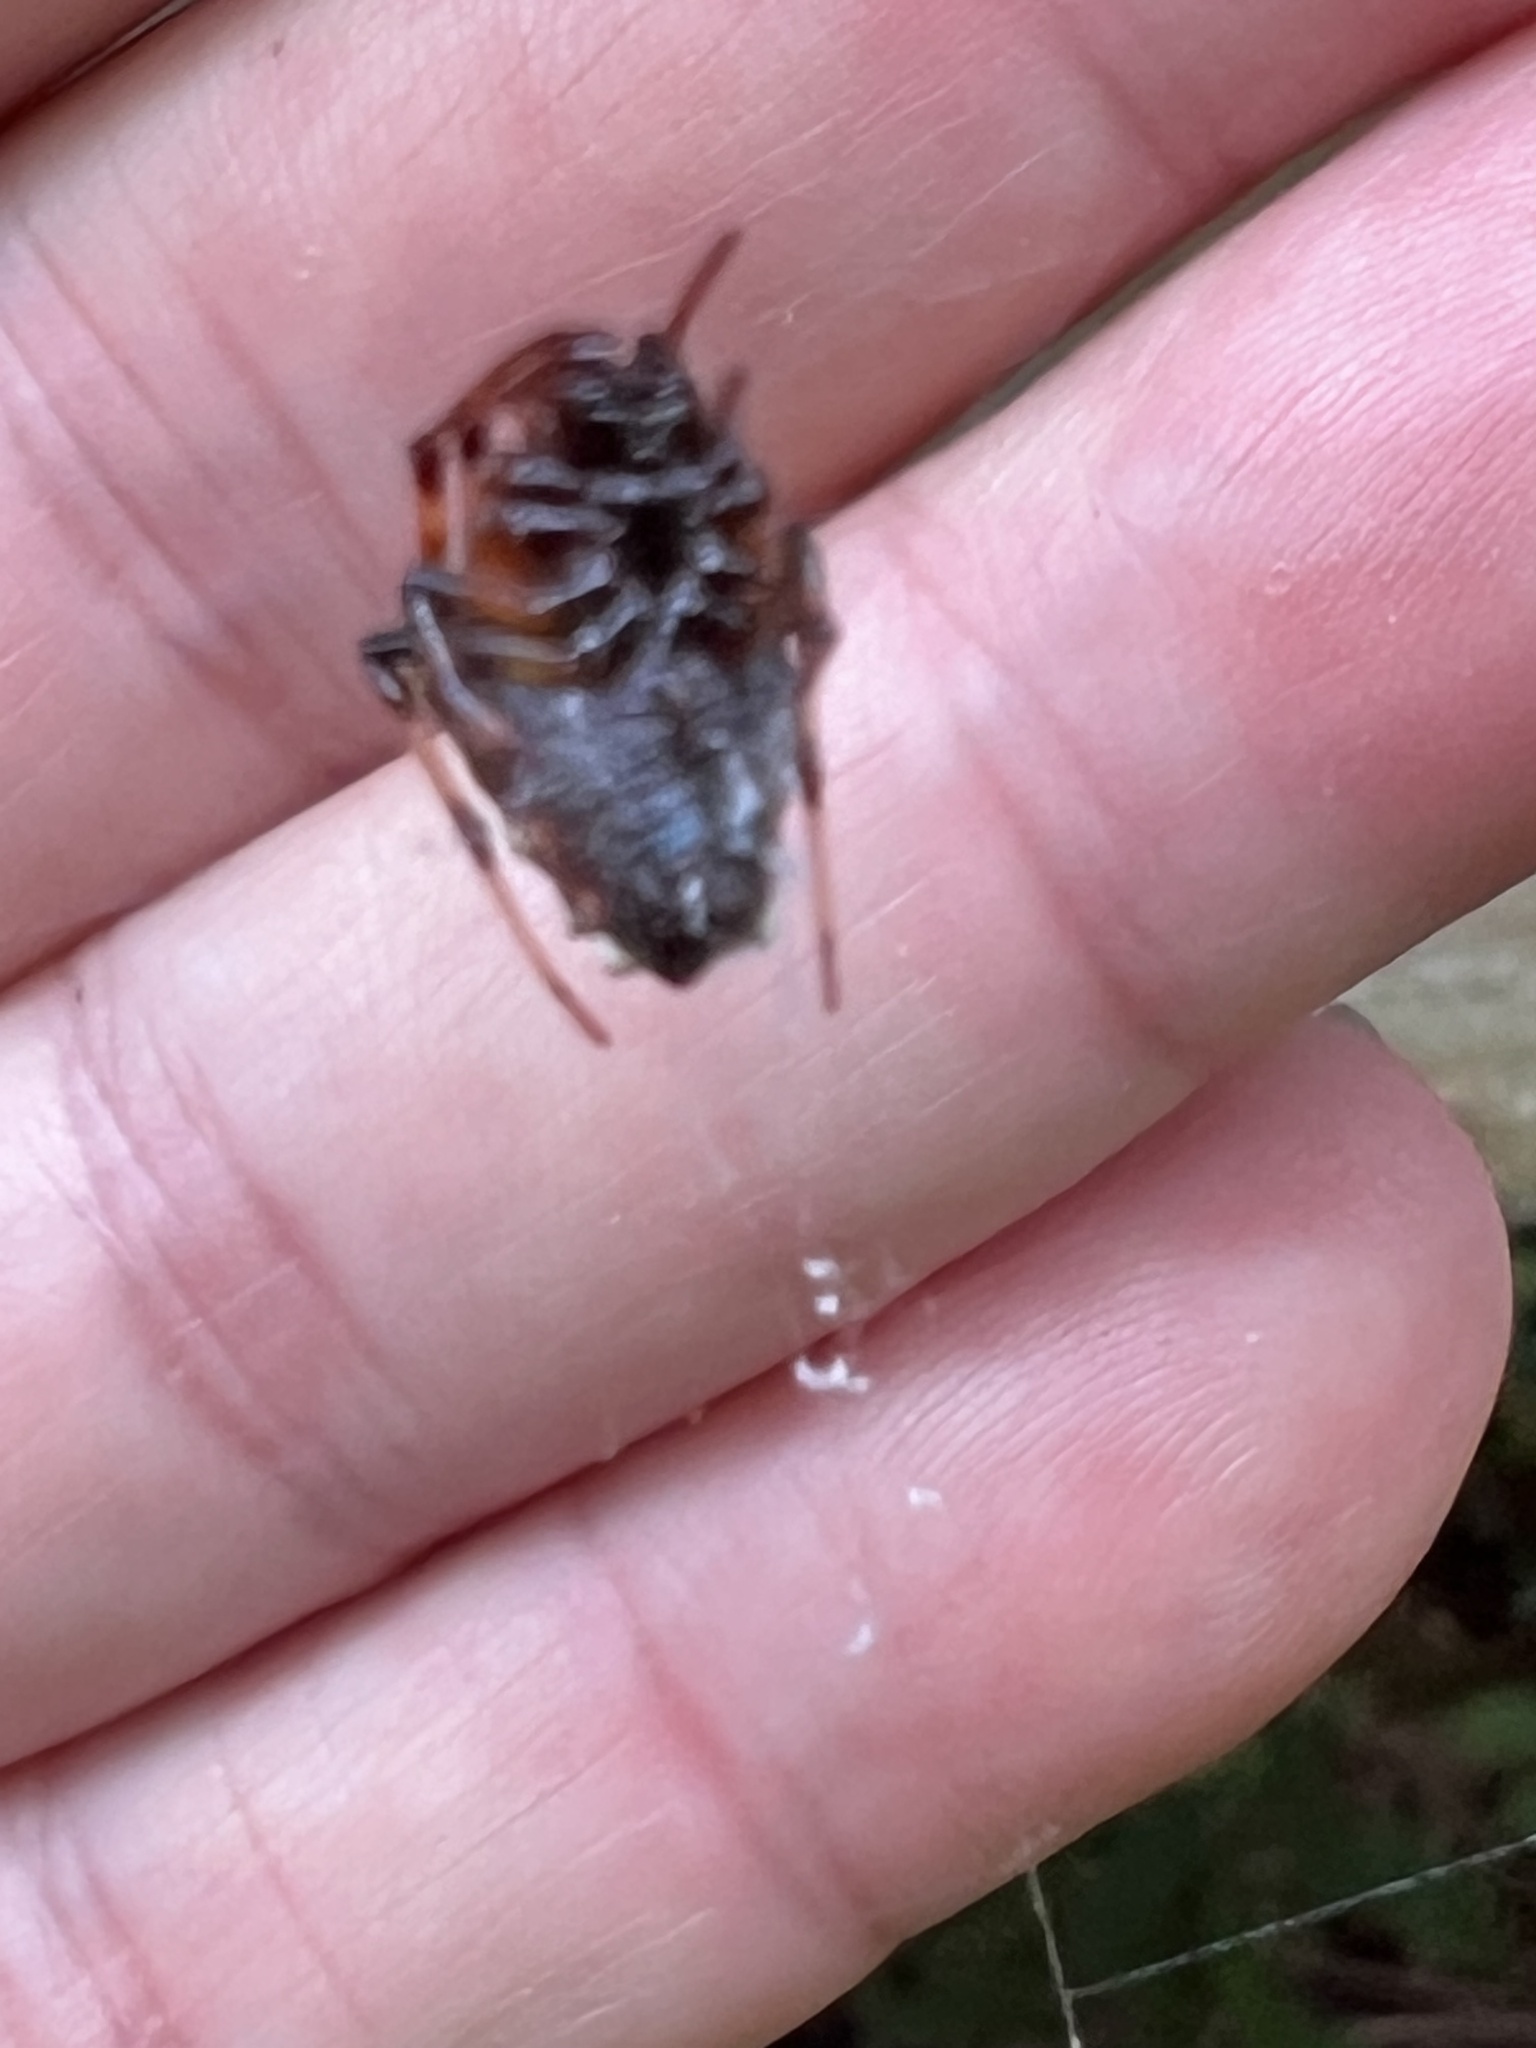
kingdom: Animalia
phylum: Arthropoda
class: Arachnida
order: Araneae
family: Araneidae
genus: Verrucosa
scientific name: Verrucosa arenata
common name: Orb weavers
